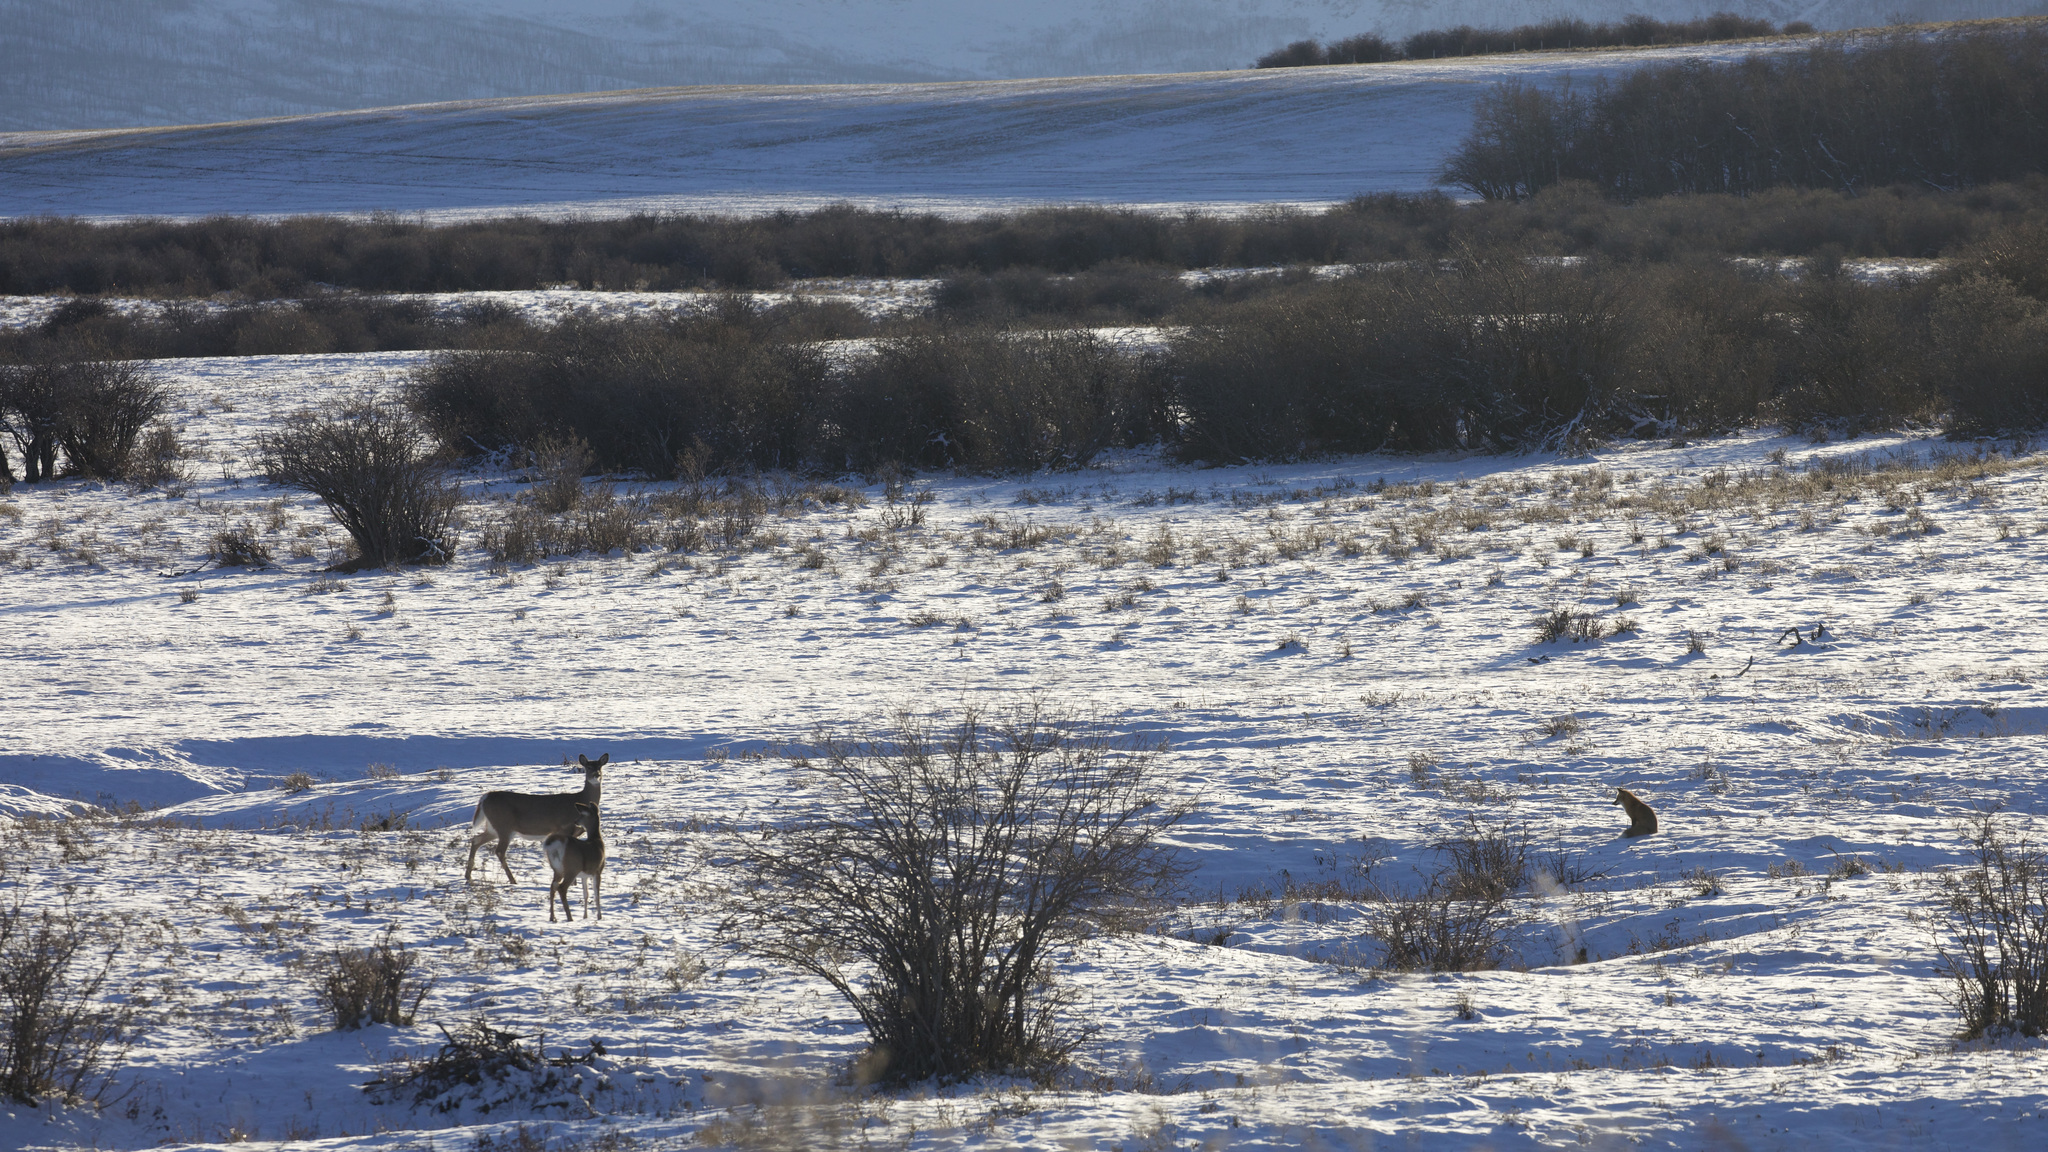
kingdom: Animalia
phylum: Chordata
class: Mammalia
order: Artiodactyla
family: Cervidae
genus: Odocoileus
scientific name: Odocoileus virginianus
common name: White-tailed deer
